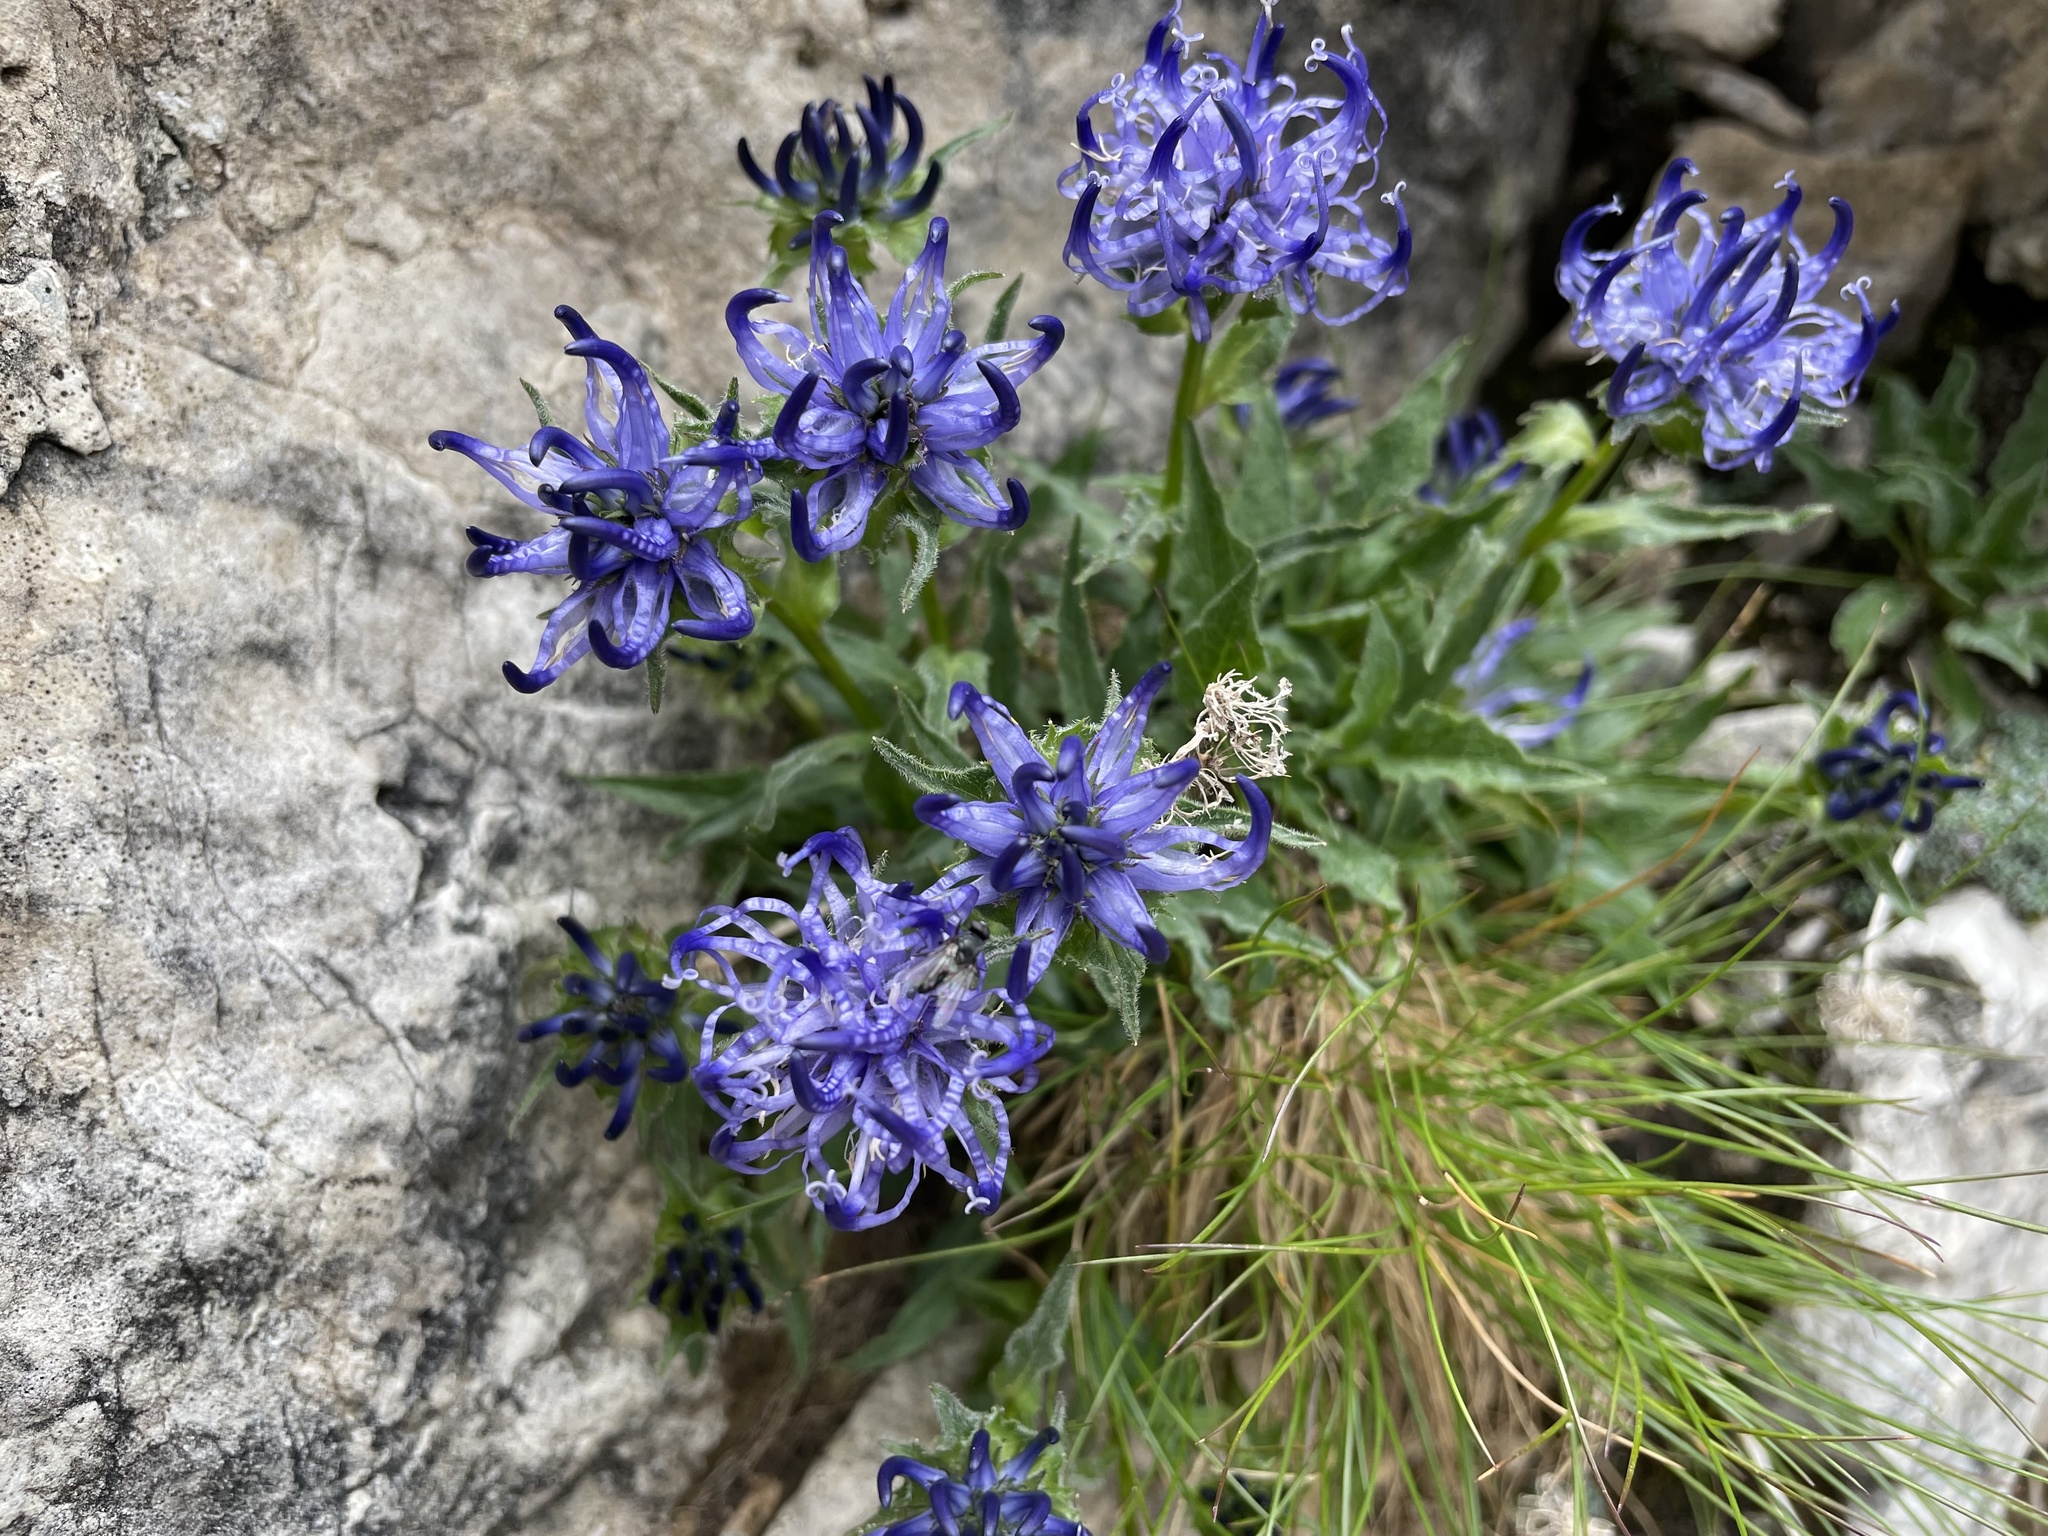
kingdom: Plantae
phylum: Tracheophyta
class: Magnoliopsida
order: Asterales
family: Campanulaceae
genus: Phyteuma
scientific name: Phyteuma sieberi
